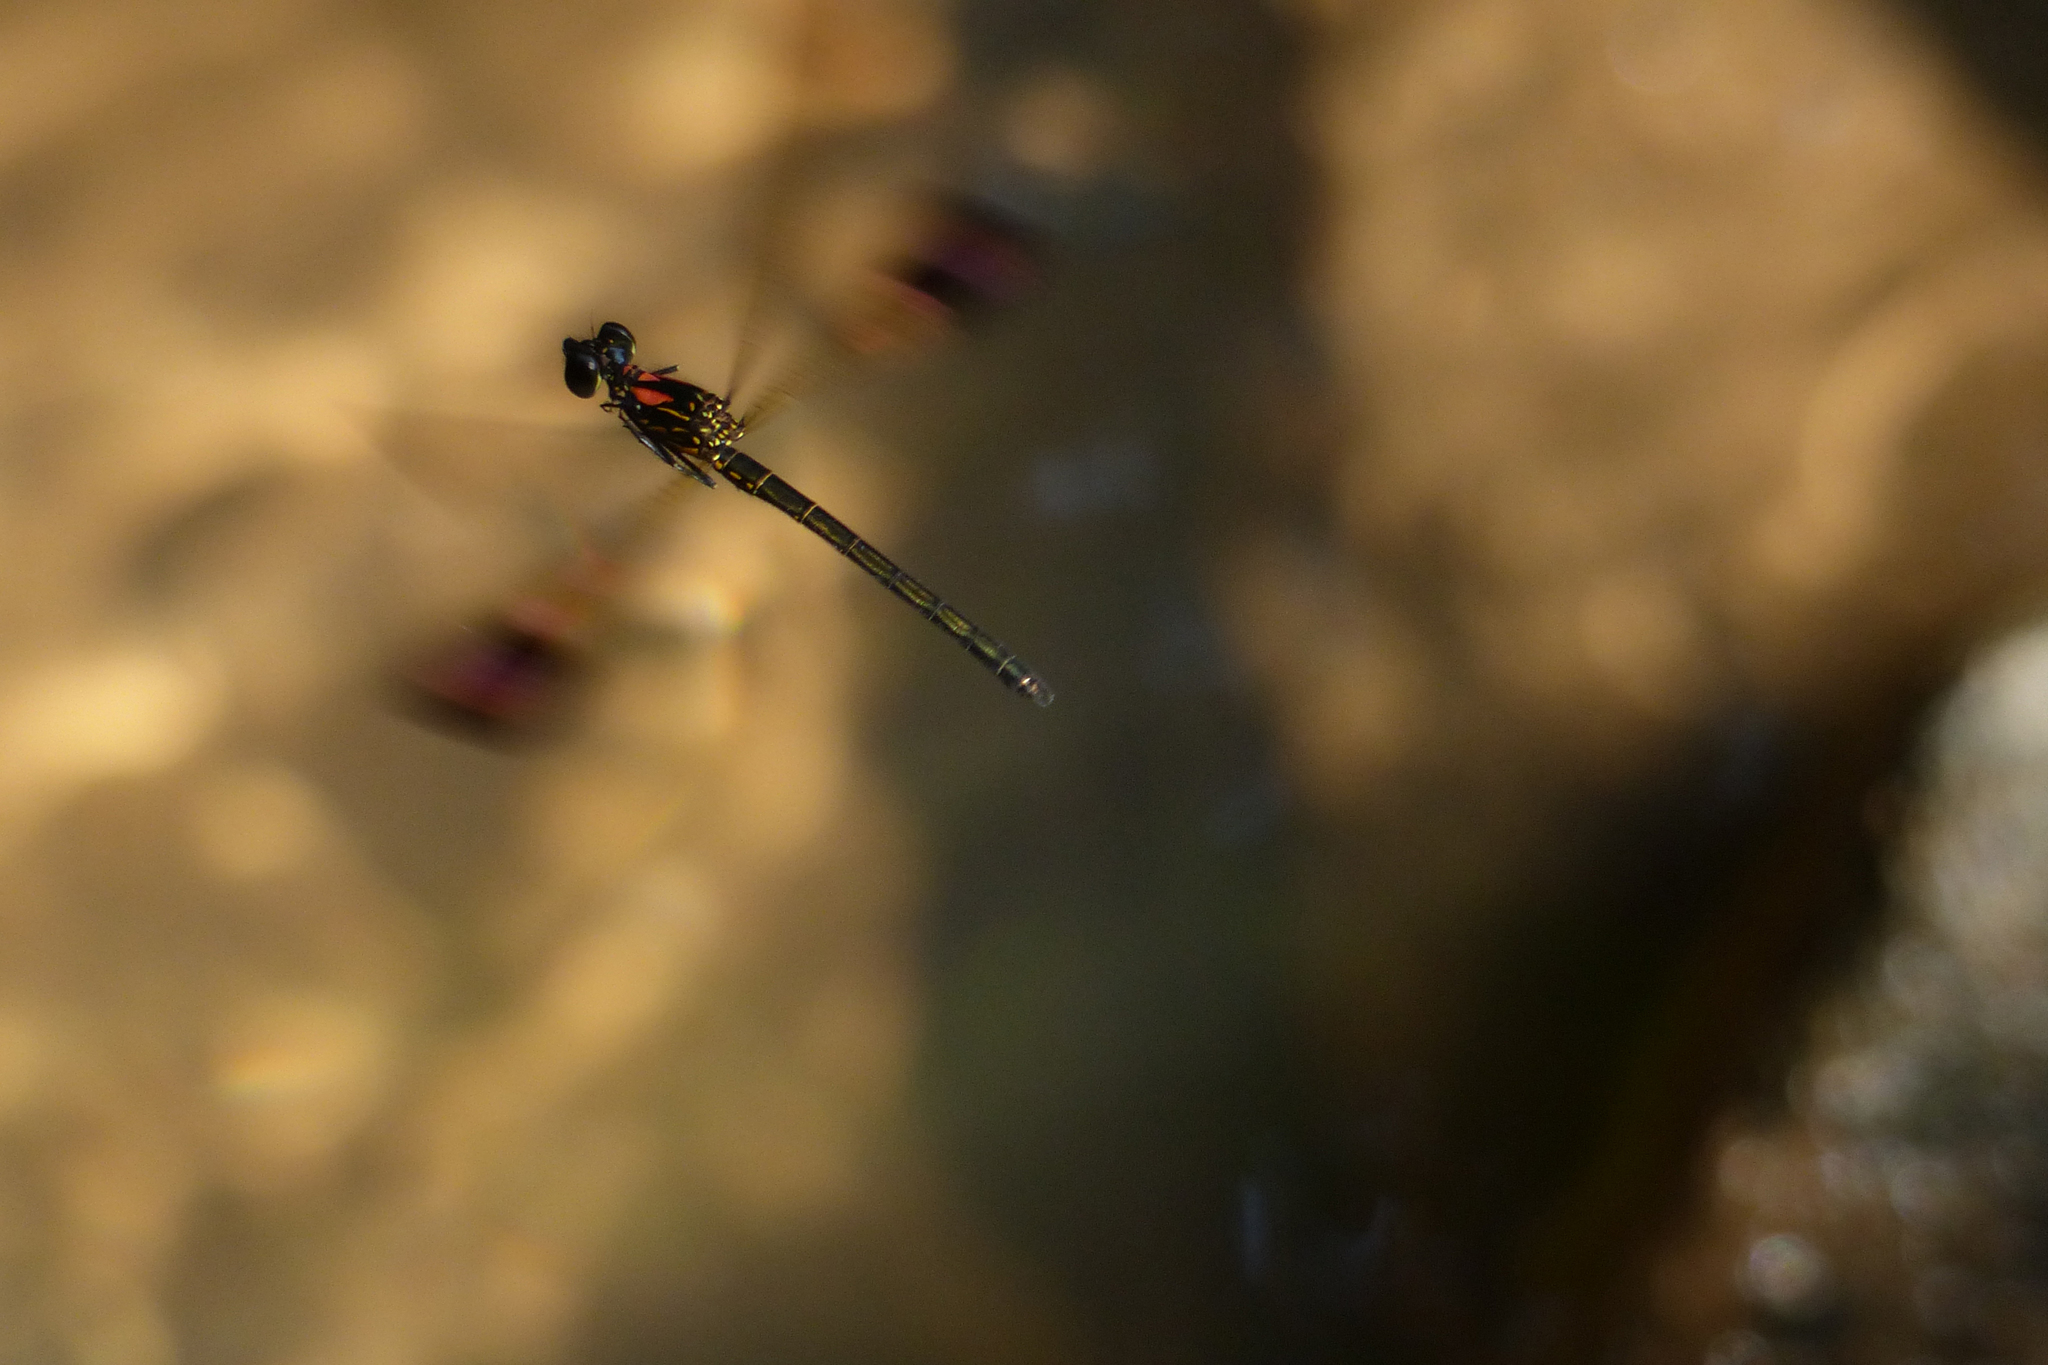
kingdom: Animalia
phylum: Arthropoda
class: Insecta
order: Odonata
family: Chlorocyphidae
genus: Heliocypha
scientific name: Heliocypha bisignata
